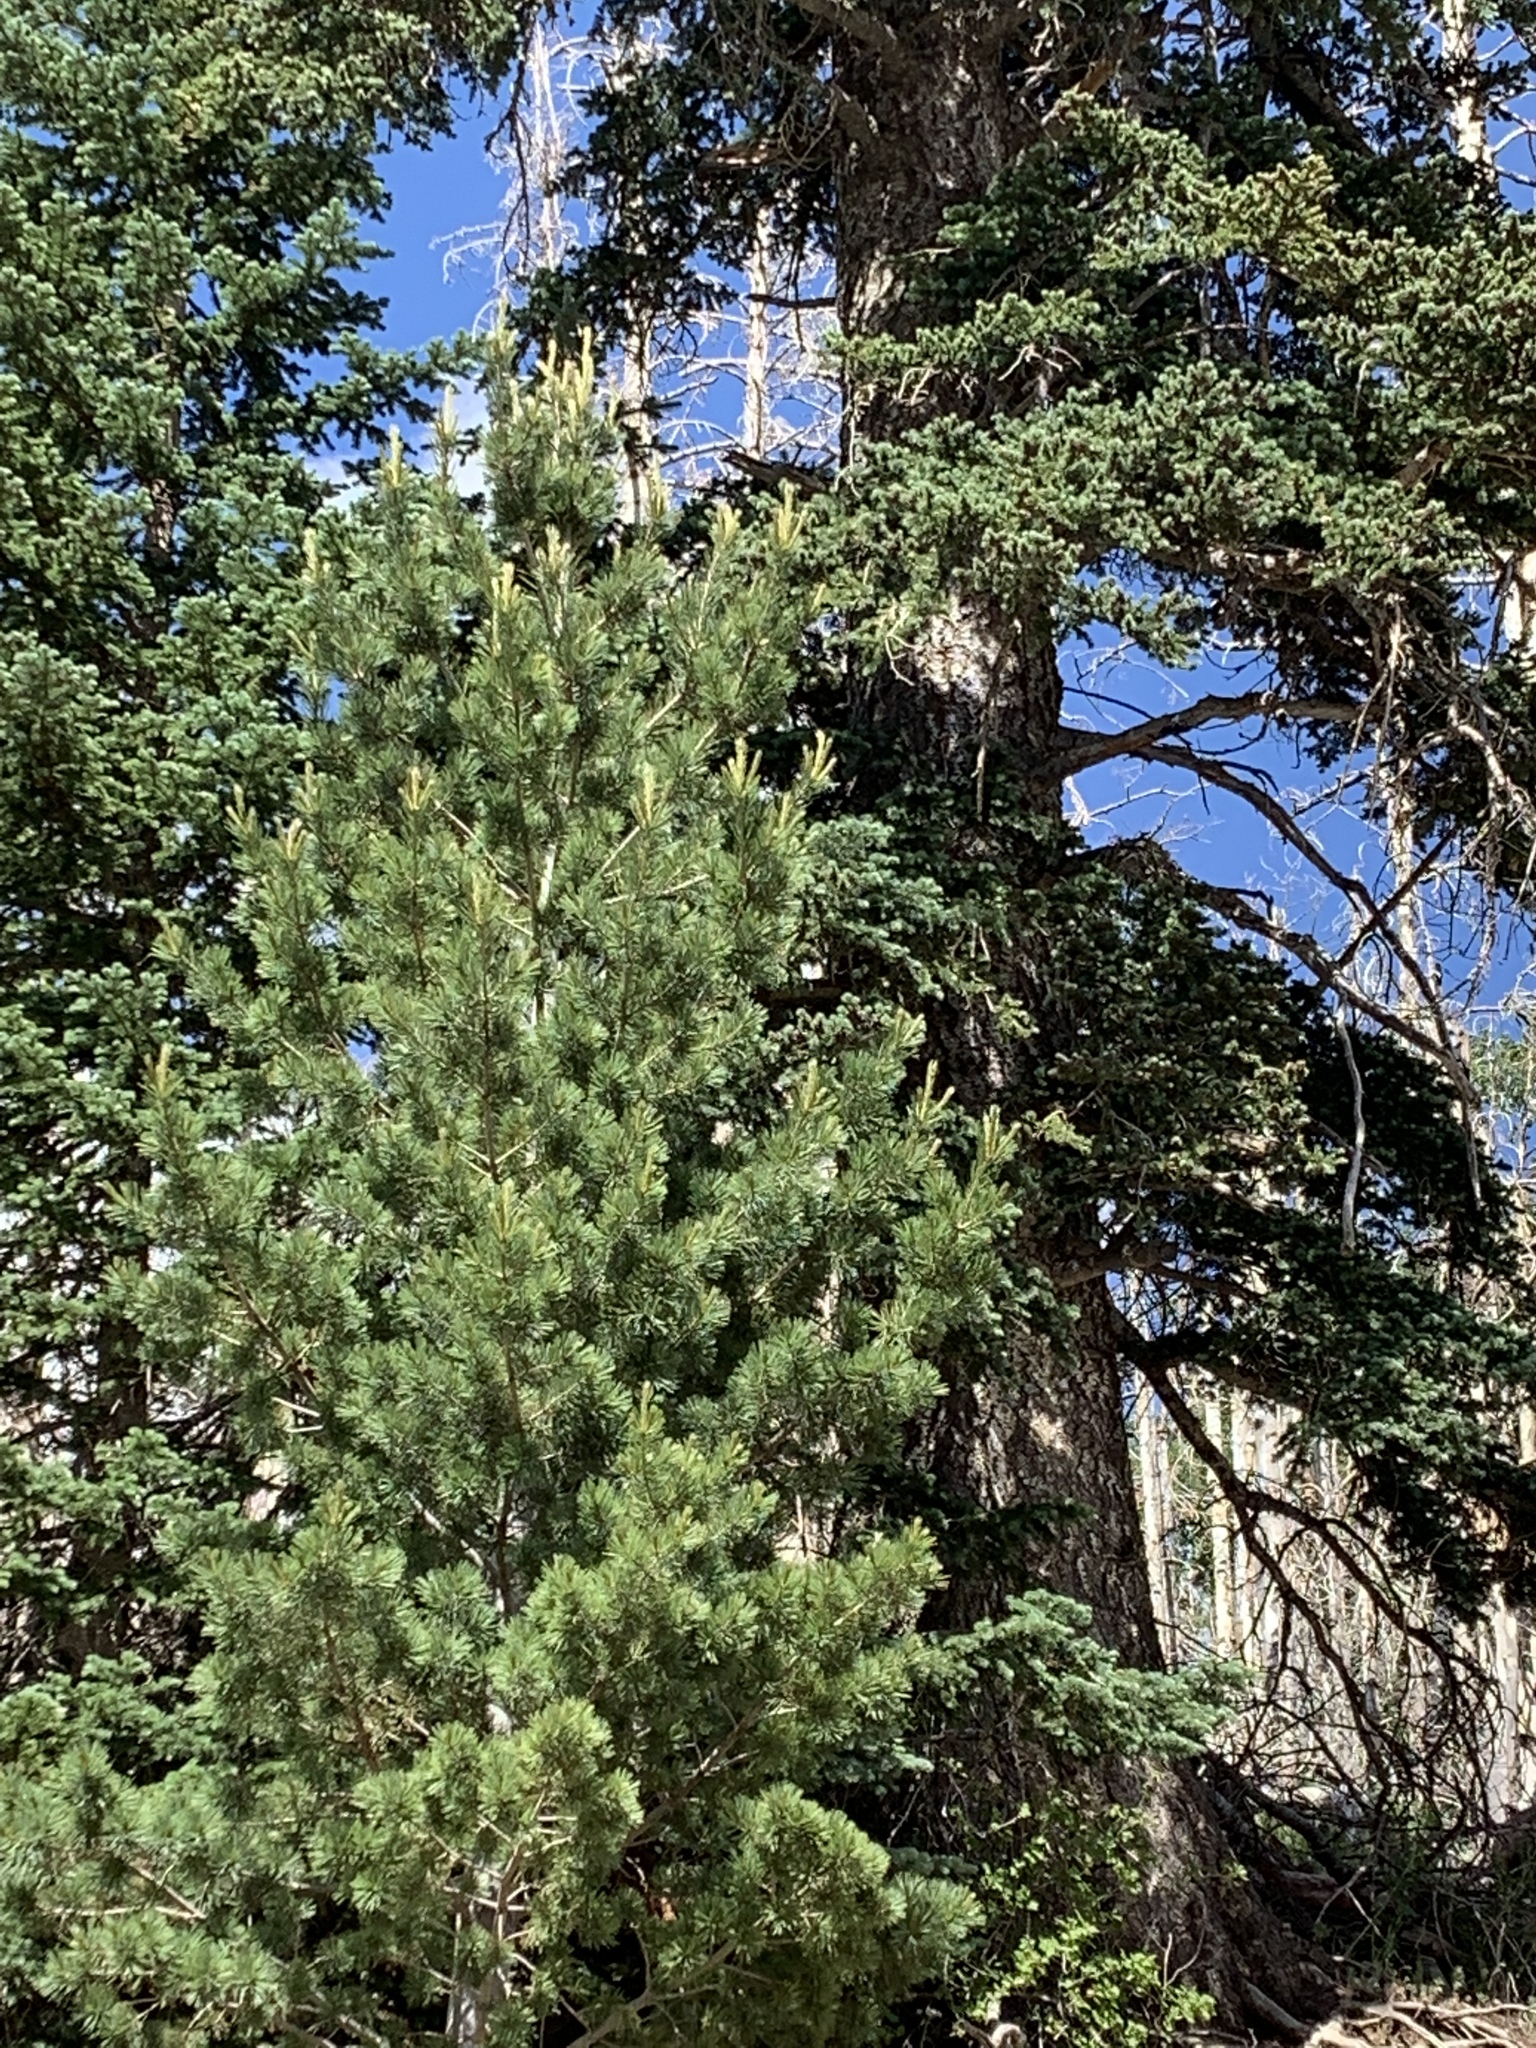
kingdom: Plantae
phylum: Tracheophyta
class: Pinopsida
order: Pinales
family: Pinaceae
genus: Pinus
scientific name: Pinus strobiformis
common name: Southwestern white pine
